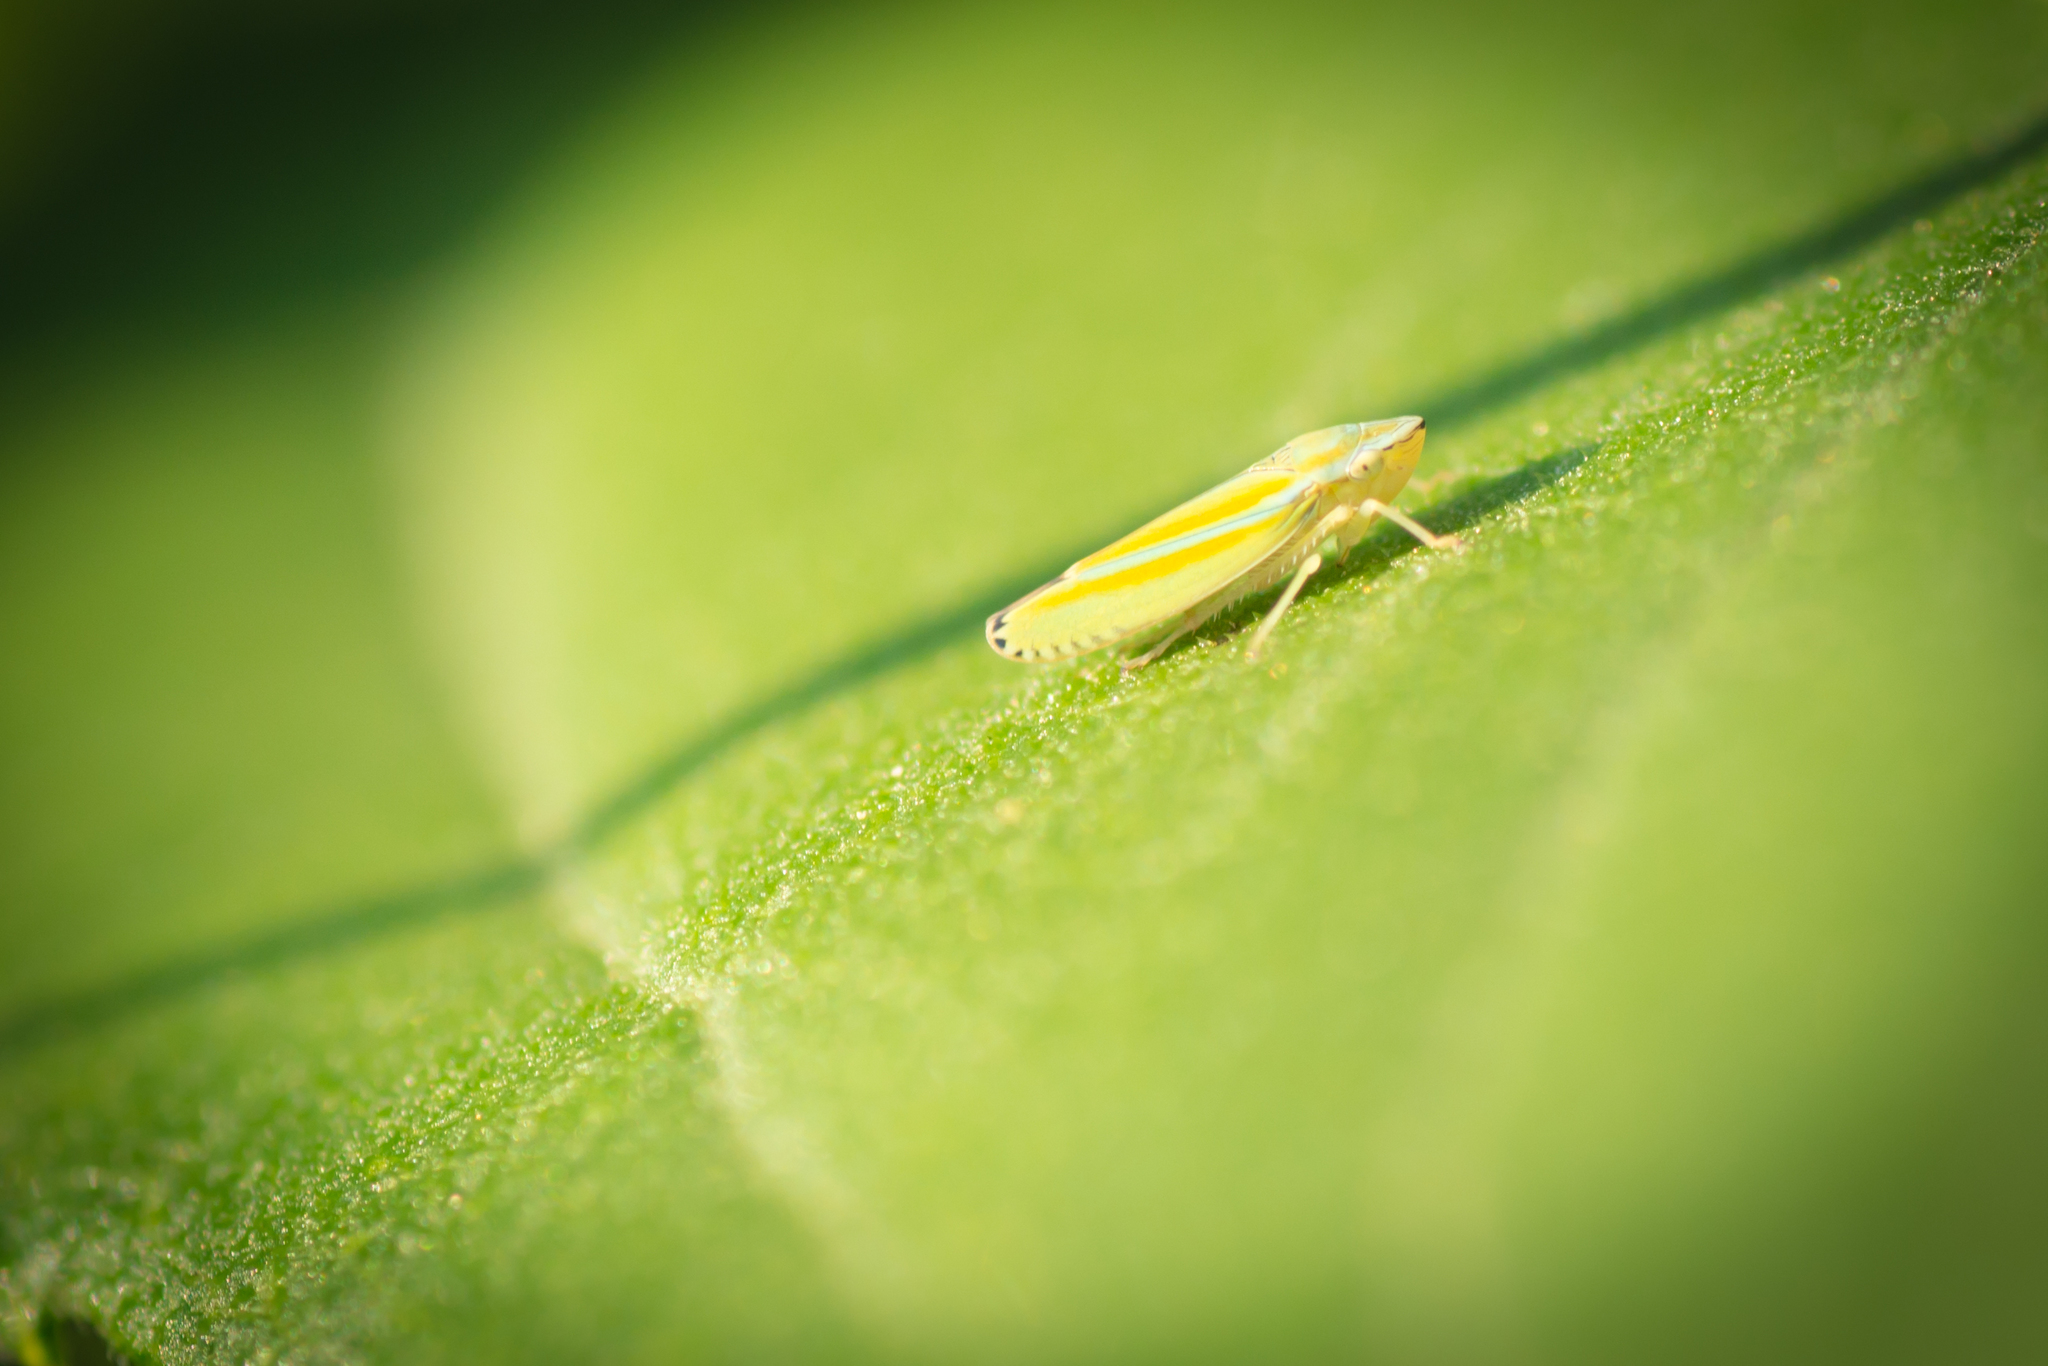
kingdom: Animalia
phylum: Arthropoda
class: Insecta
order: Hemiptera
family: Cicadellidae
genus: Graphocephala
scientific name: Graphocephala versuta
